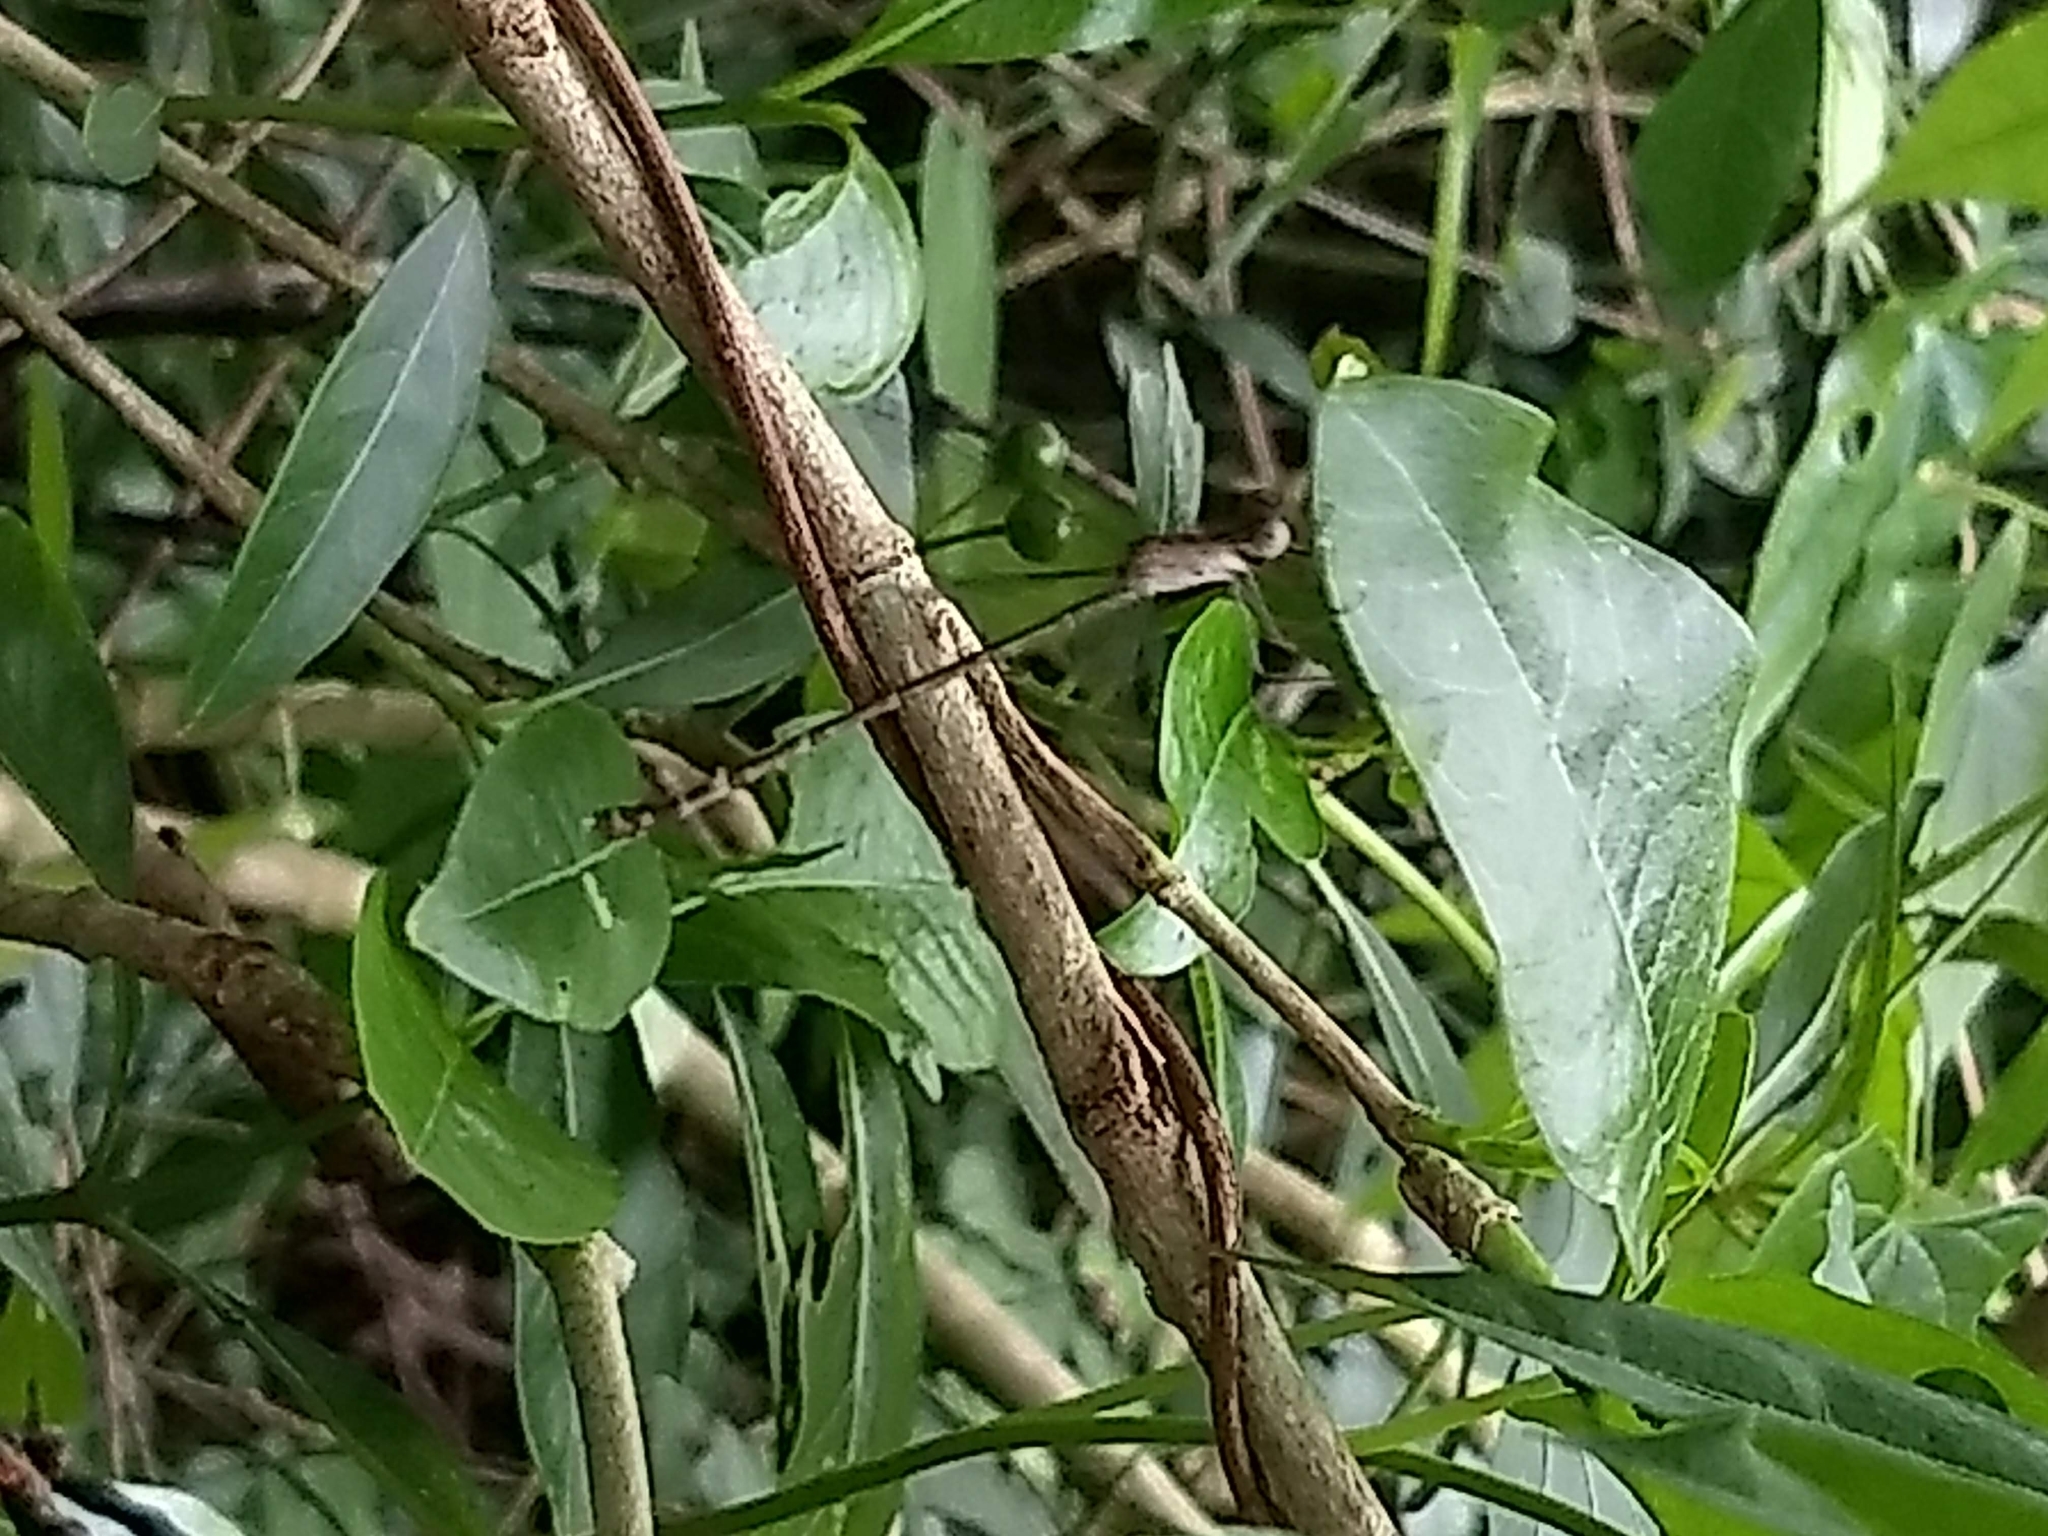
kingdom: Animalia
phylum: Arthropoda
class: Insecta
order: Odonata
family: Lestidae
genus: Lestes
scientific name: Lestes praemorsus
